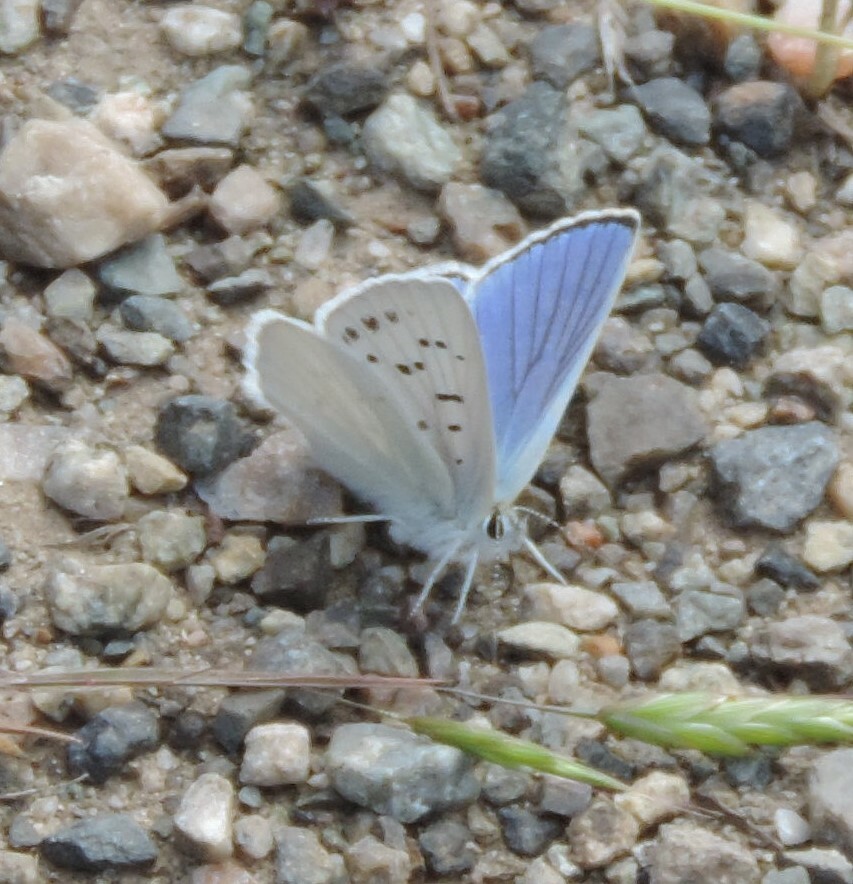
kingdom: Animalia
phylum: Arthropoda
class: Insecta
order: Lepidoptera
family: Lycaenidae
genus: Tharsalea
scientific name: Tharsalea heteronea
